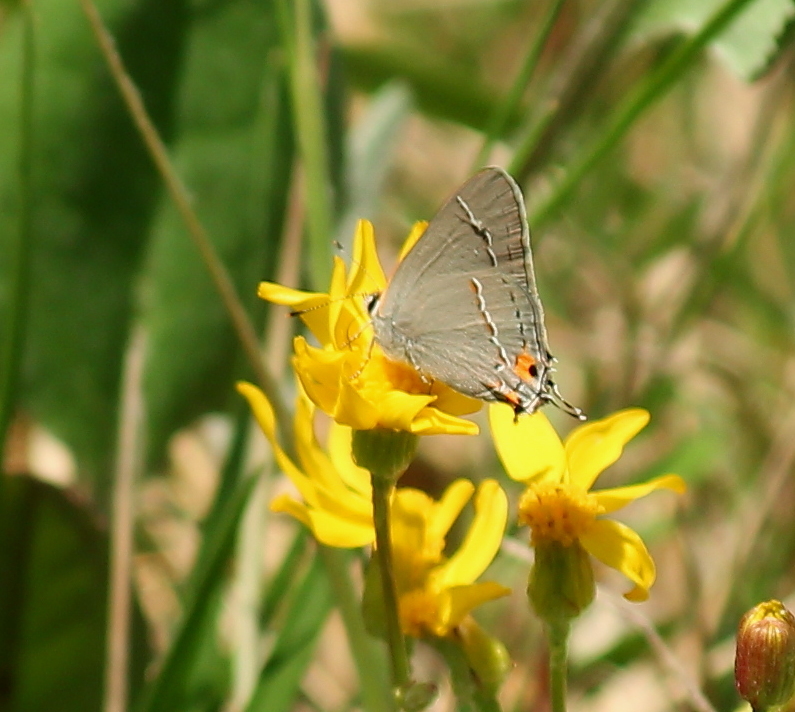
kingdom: Animalia
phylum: Arthropoda
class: Insecta
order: Lepidoptera
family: Lycaenidae
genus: Strymon
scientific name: Strymon melinus
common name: Gray hairstreak
